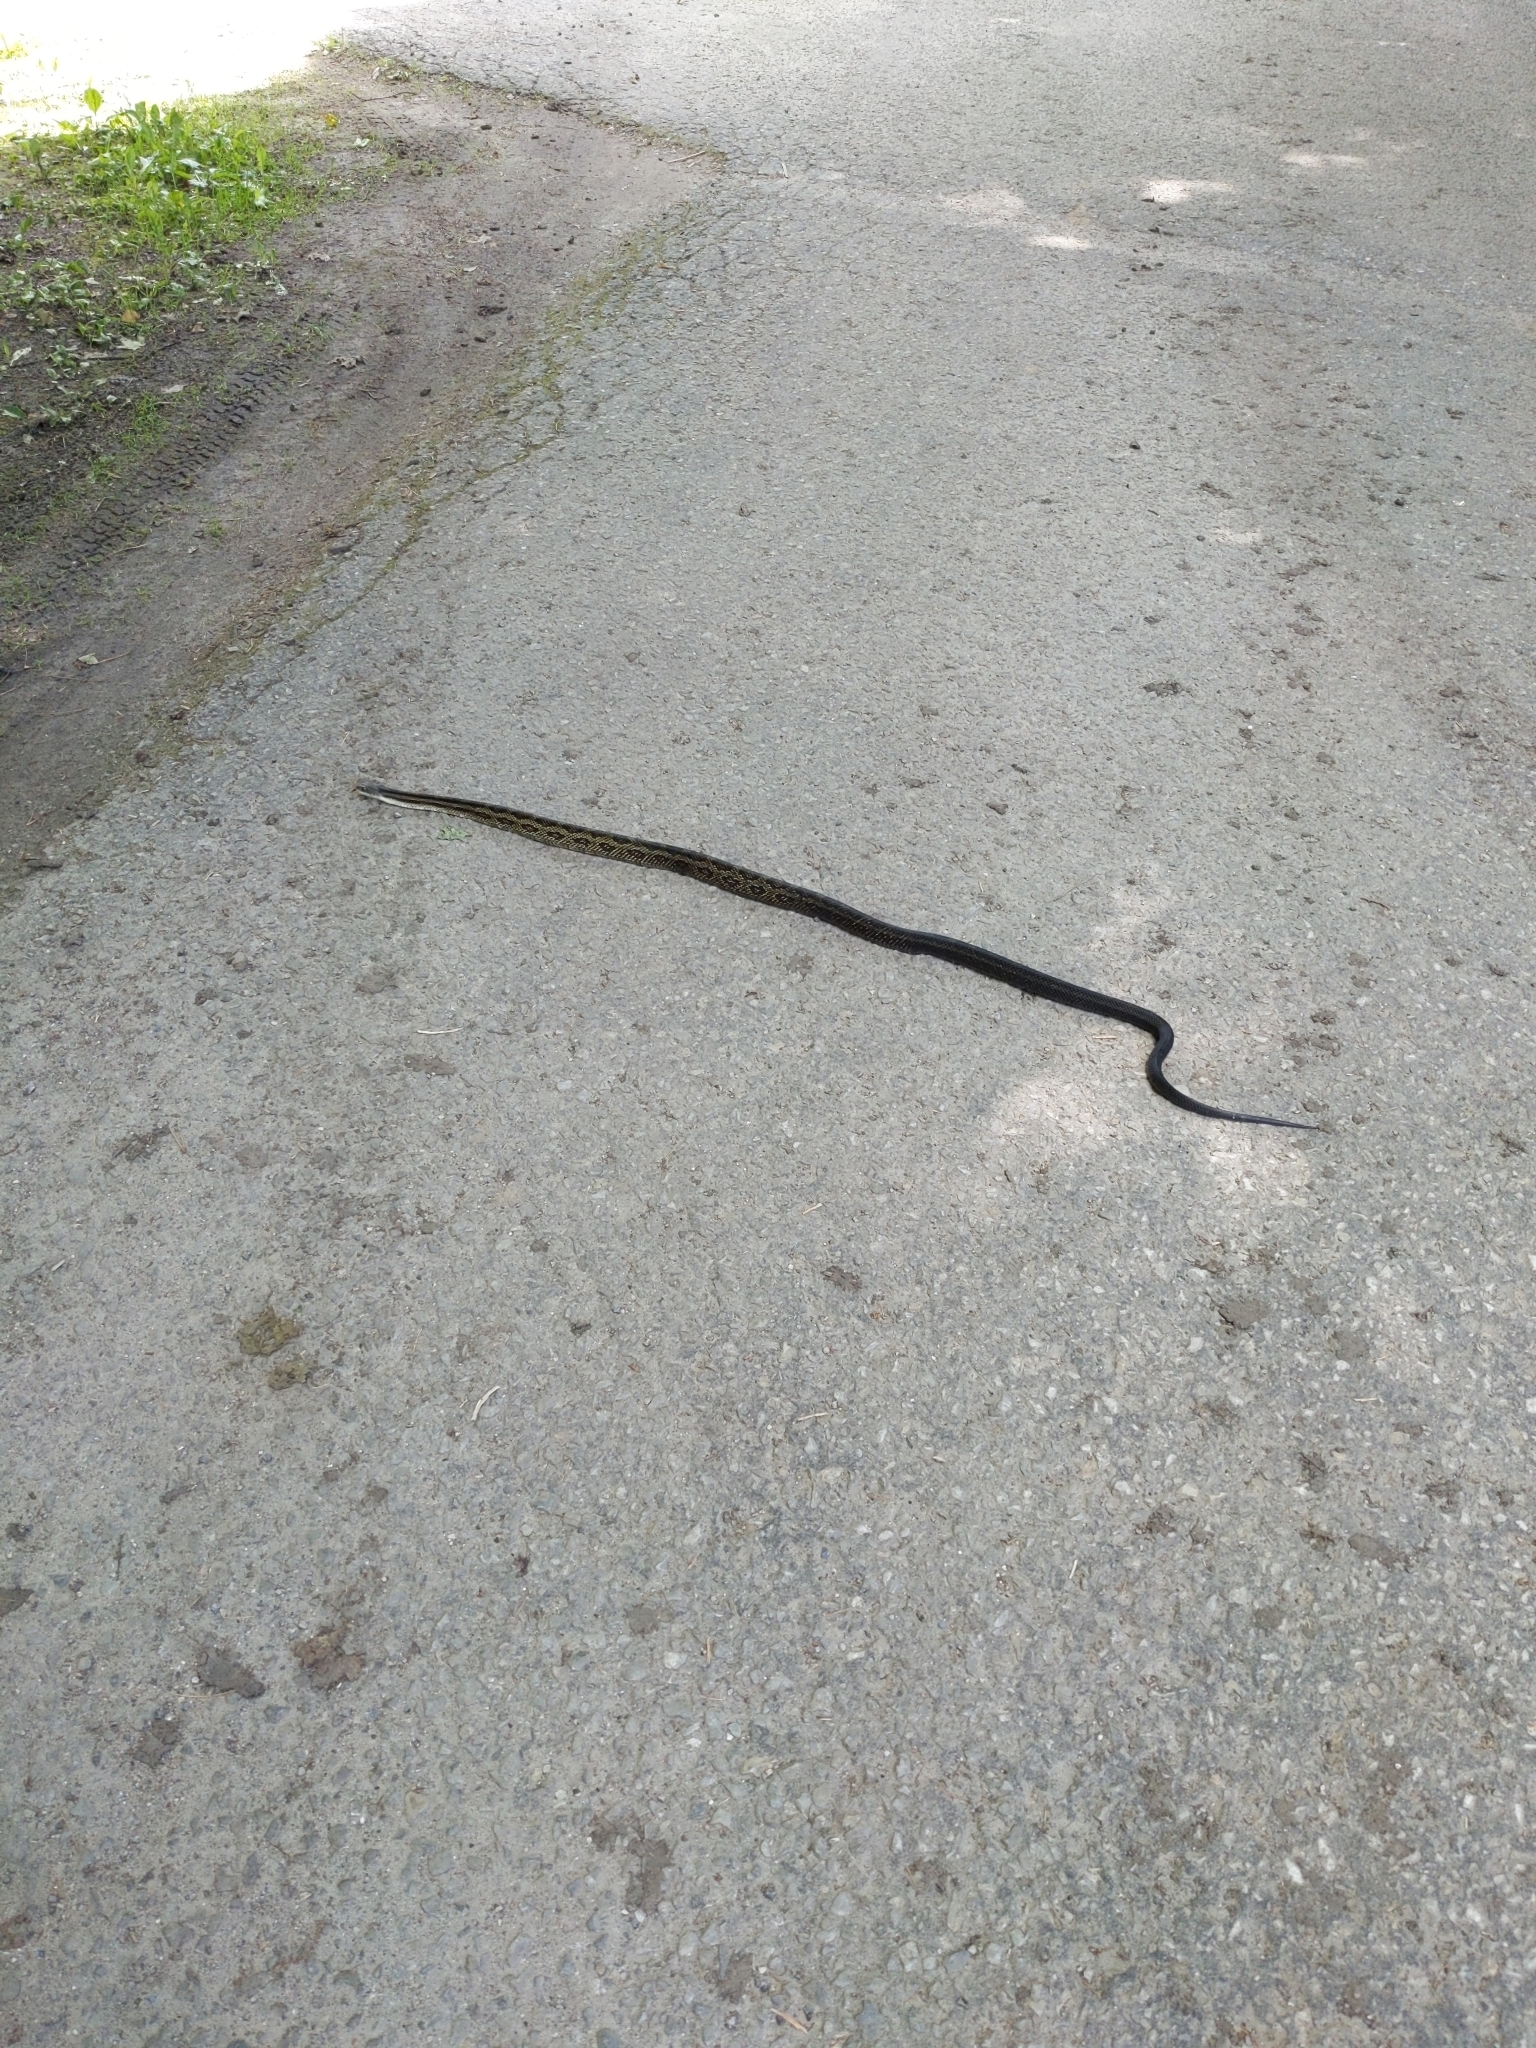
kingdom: Animalia
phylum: Chordata
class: Squamata
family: Colubridae
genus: Pantherophis
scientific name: Pantherophis spiloides
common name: Gray rat snake
